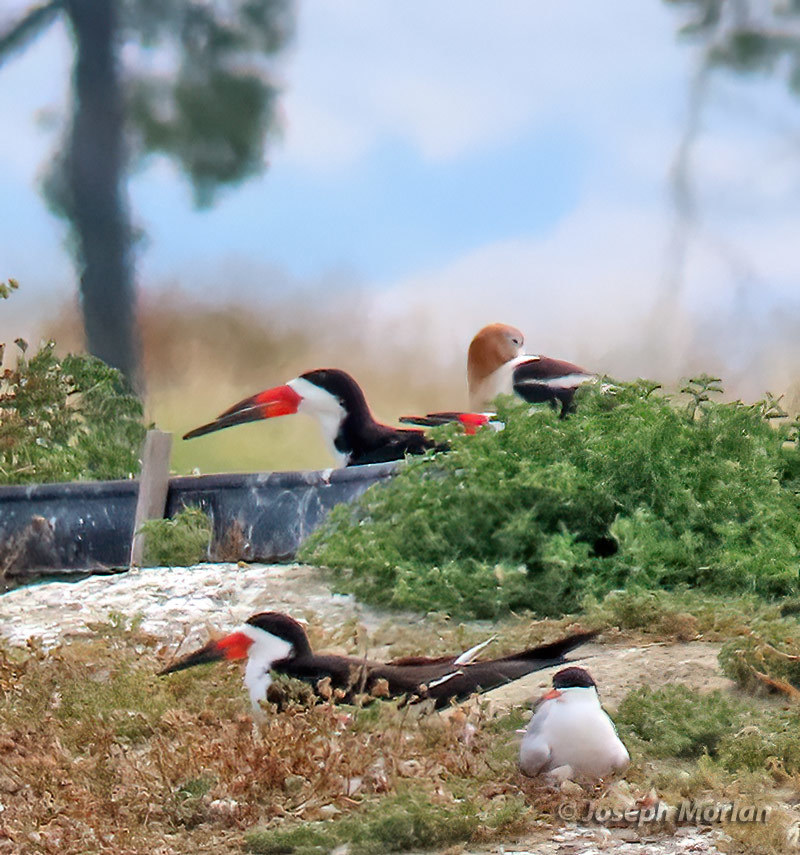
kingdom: Animalia
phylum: Chordata
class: Aves
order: Charadriiformes
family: Laridae
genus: Rynchops
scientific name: Rynchops niger
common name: Black skimmer
